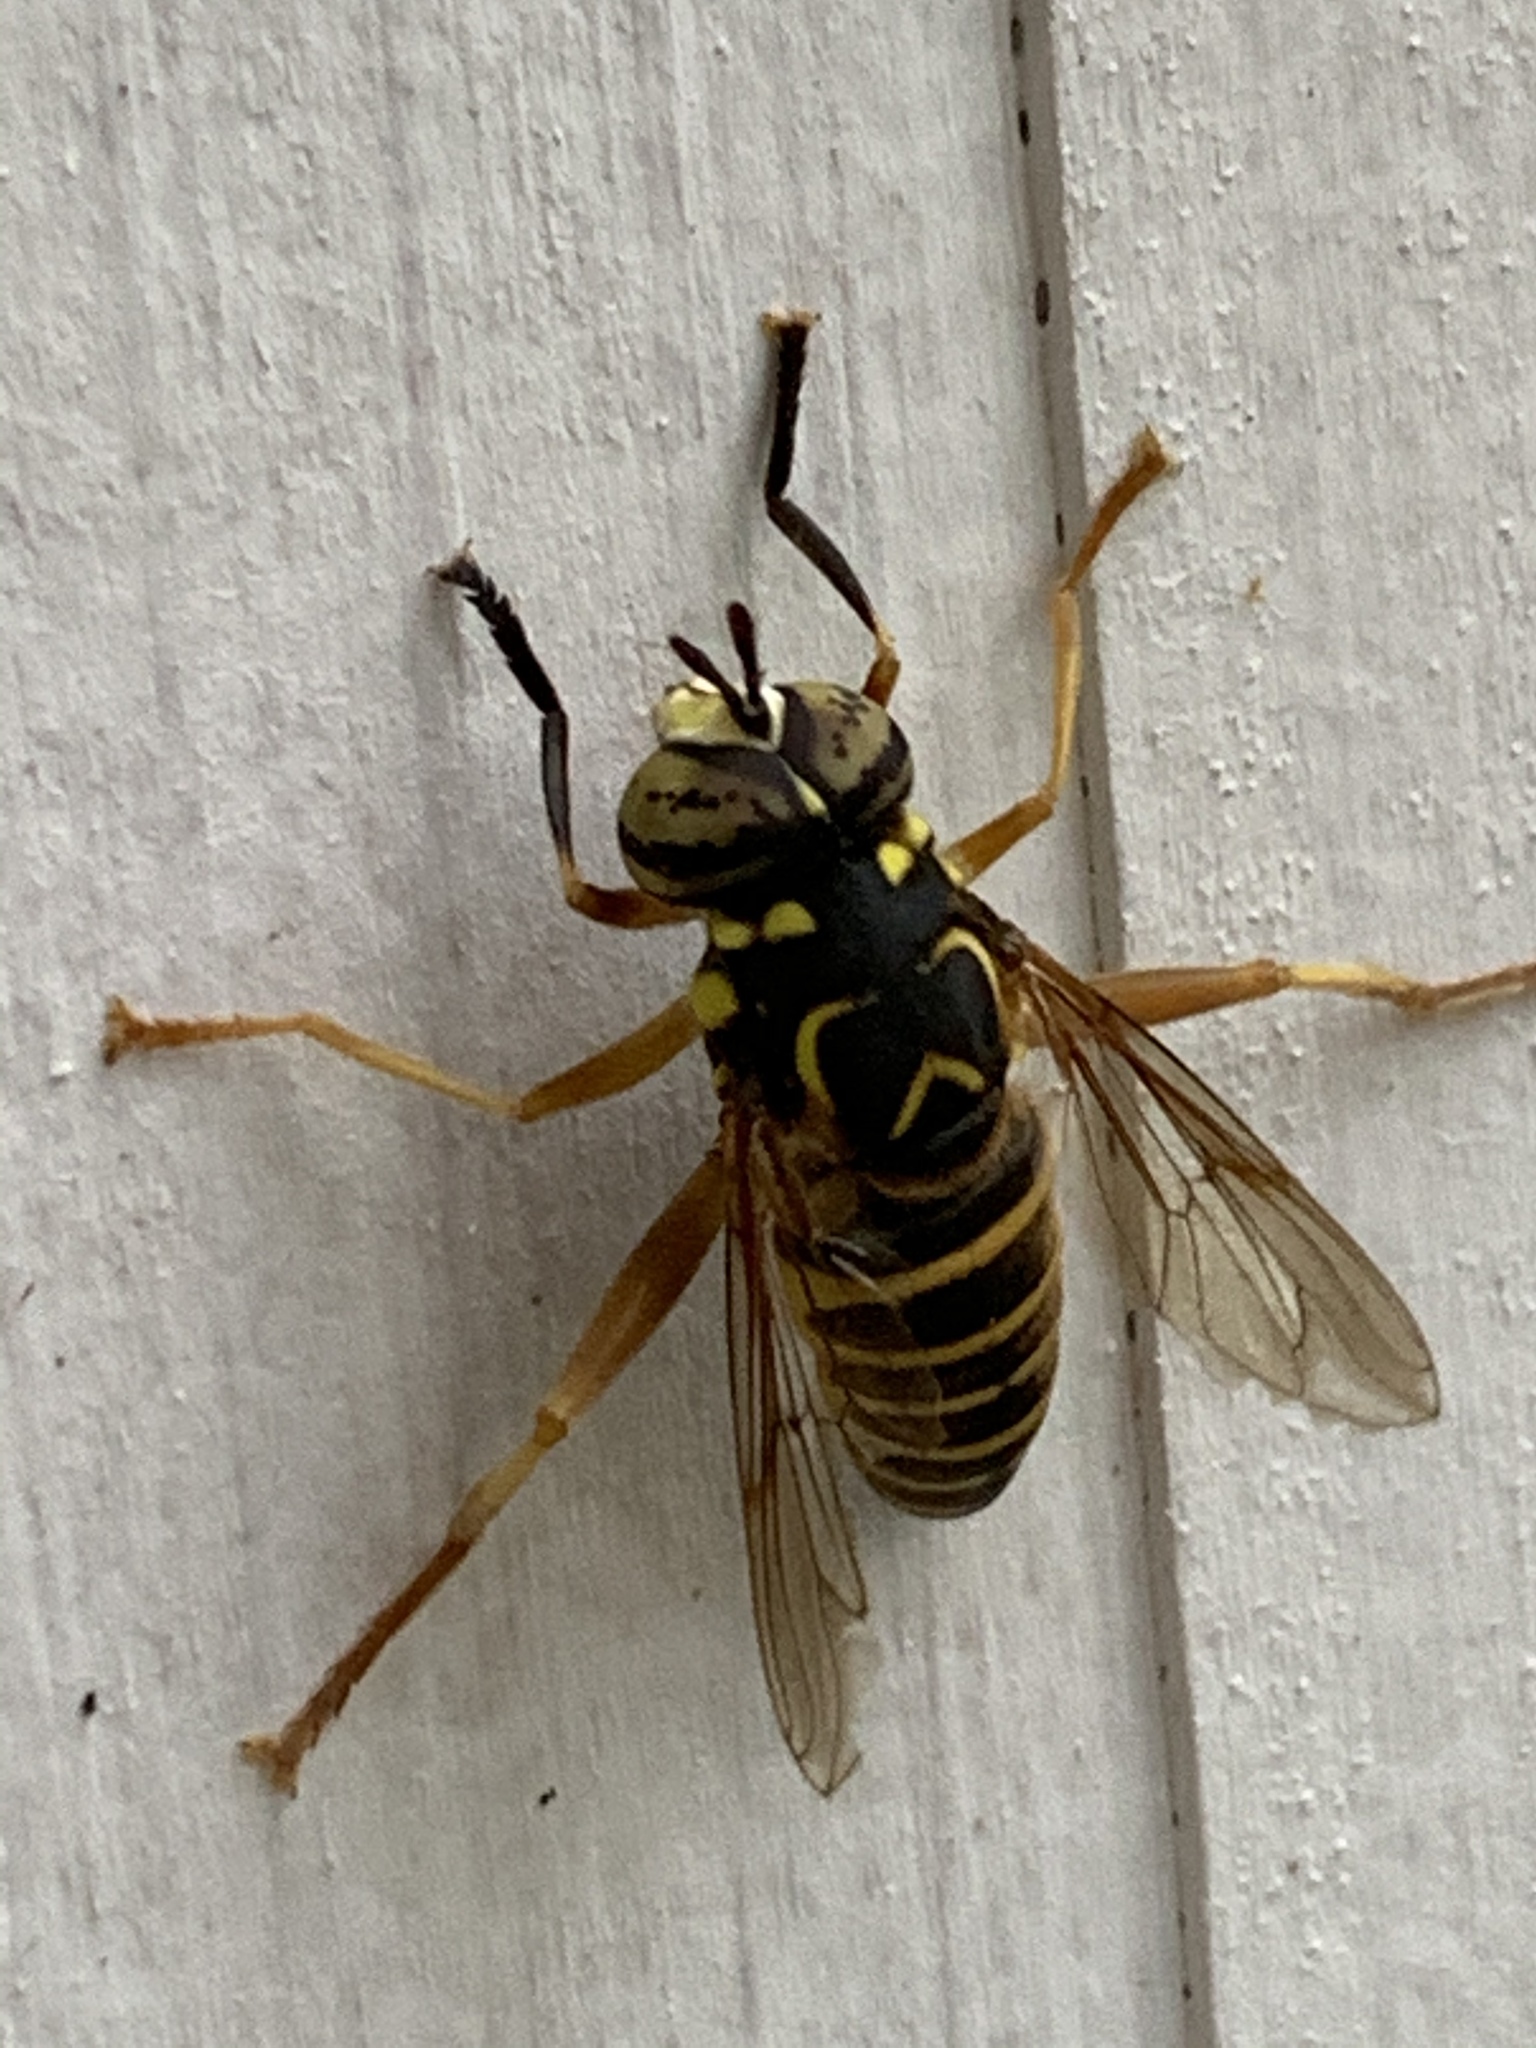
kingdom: Animalia
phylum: Arthropoda
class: Insecta
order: Diptera
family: Syrphidae
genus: Spilomyia
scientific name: Spilomyia longicornis
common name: Eastern hornet fly
